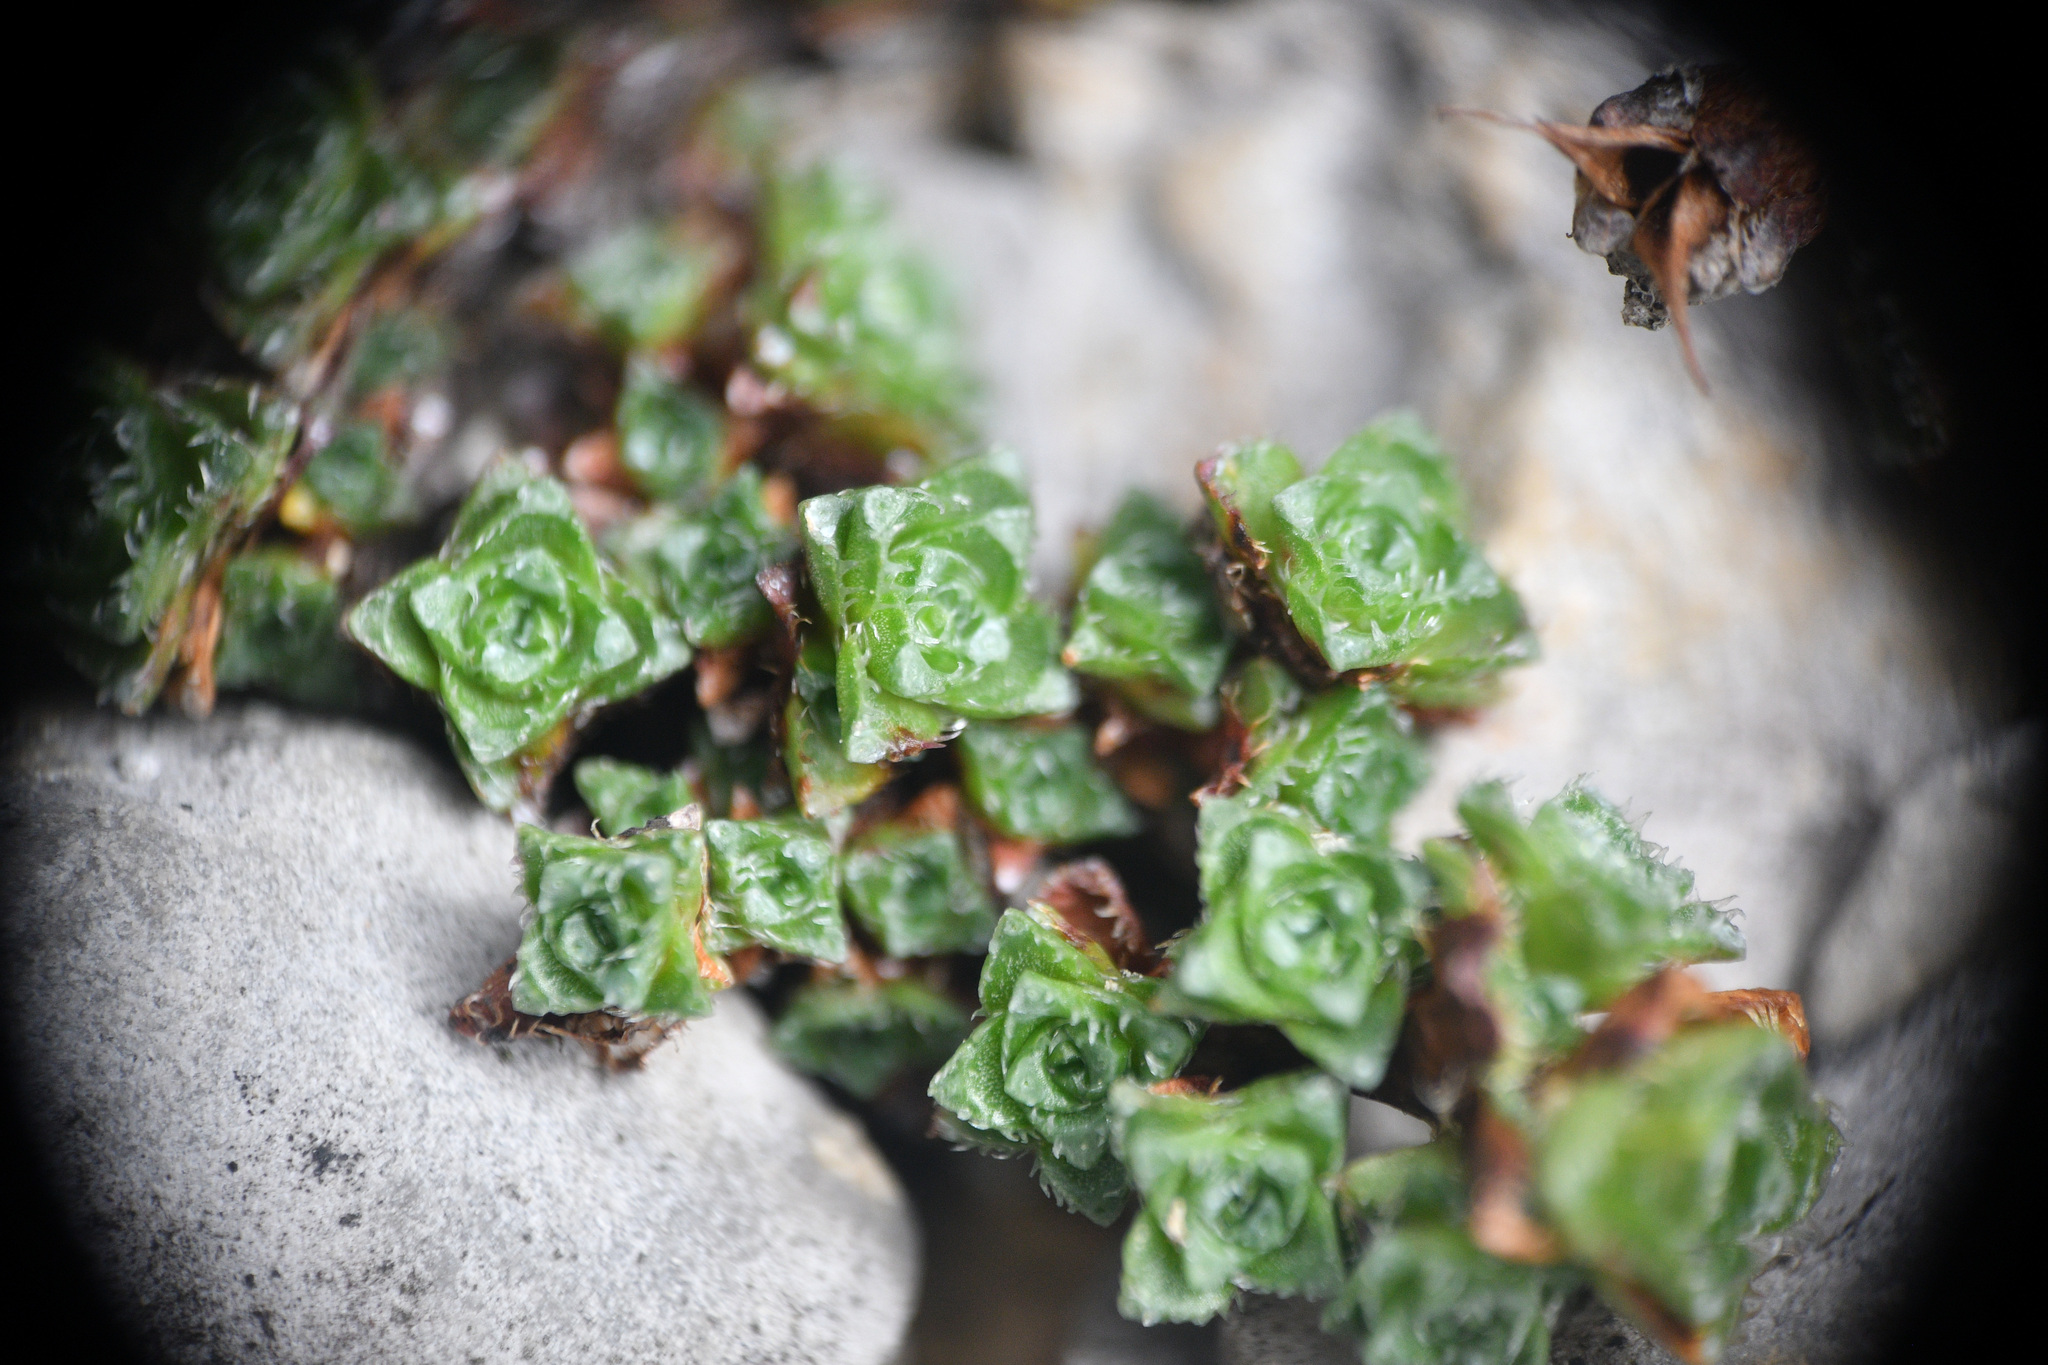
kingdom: Plantae
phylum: Tracheophyta
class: Magnoliopsida
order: Saxifragales
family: Saxifragaceae
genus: Saxifraga
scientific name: Saxifraga oppositifolia
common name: Purple saxifrage
